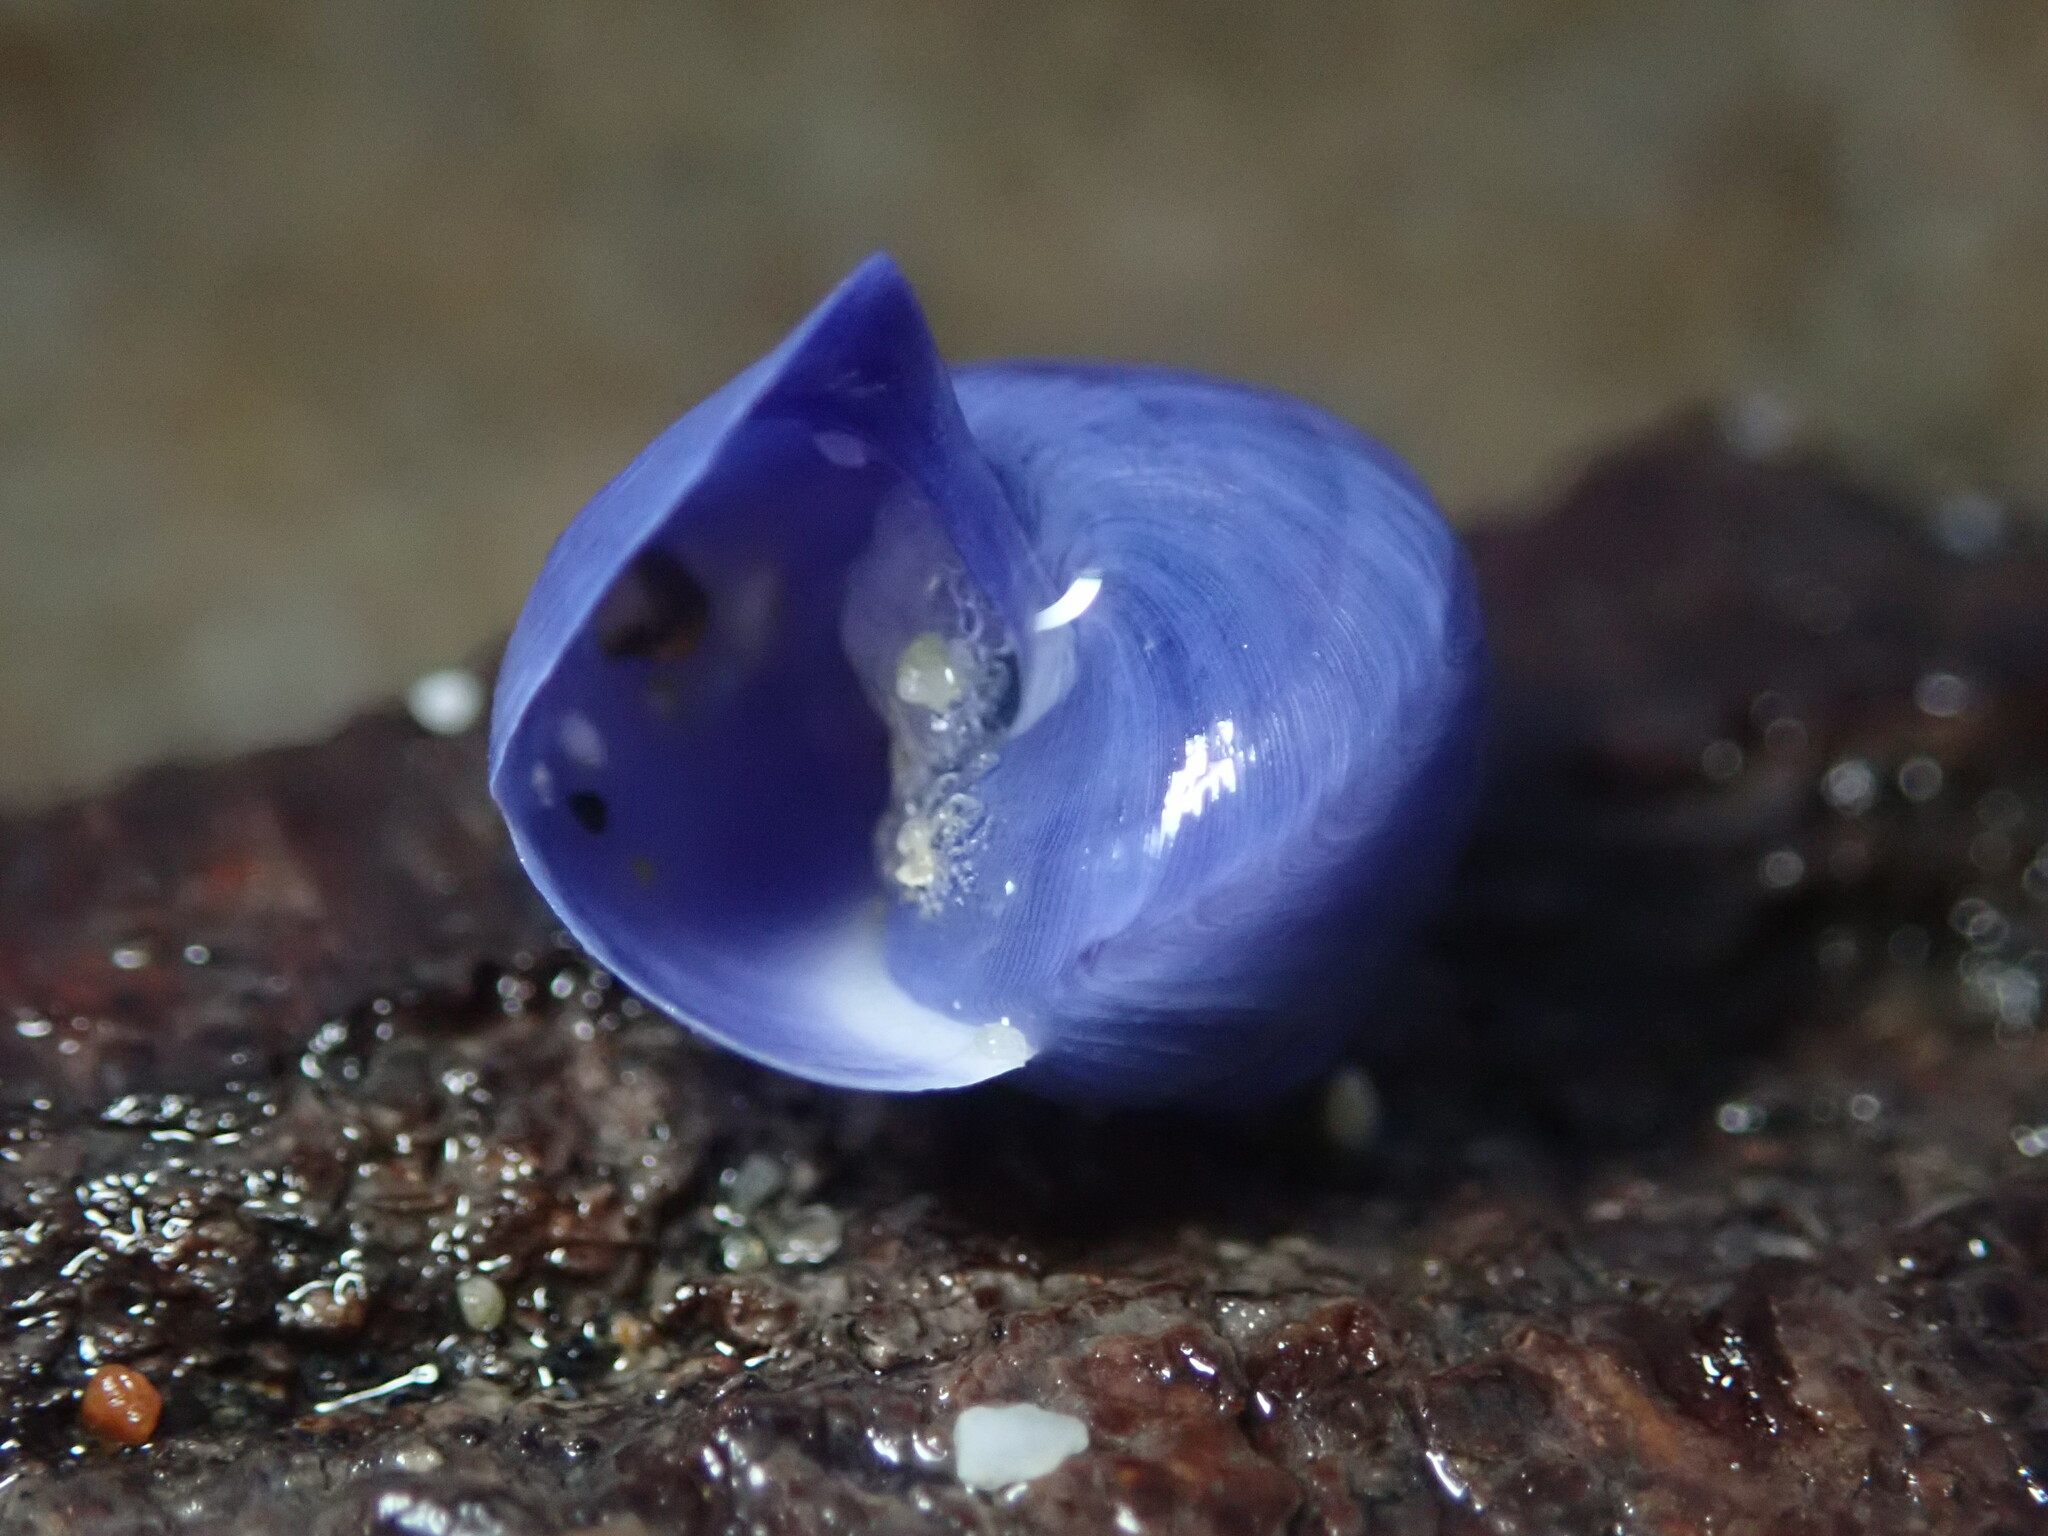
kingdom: Animalia
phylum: Mollusca
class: Gastropoda
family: Epitoniidae
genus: Janthina
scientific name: Janthina umbilicata
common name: Elongate janthina
